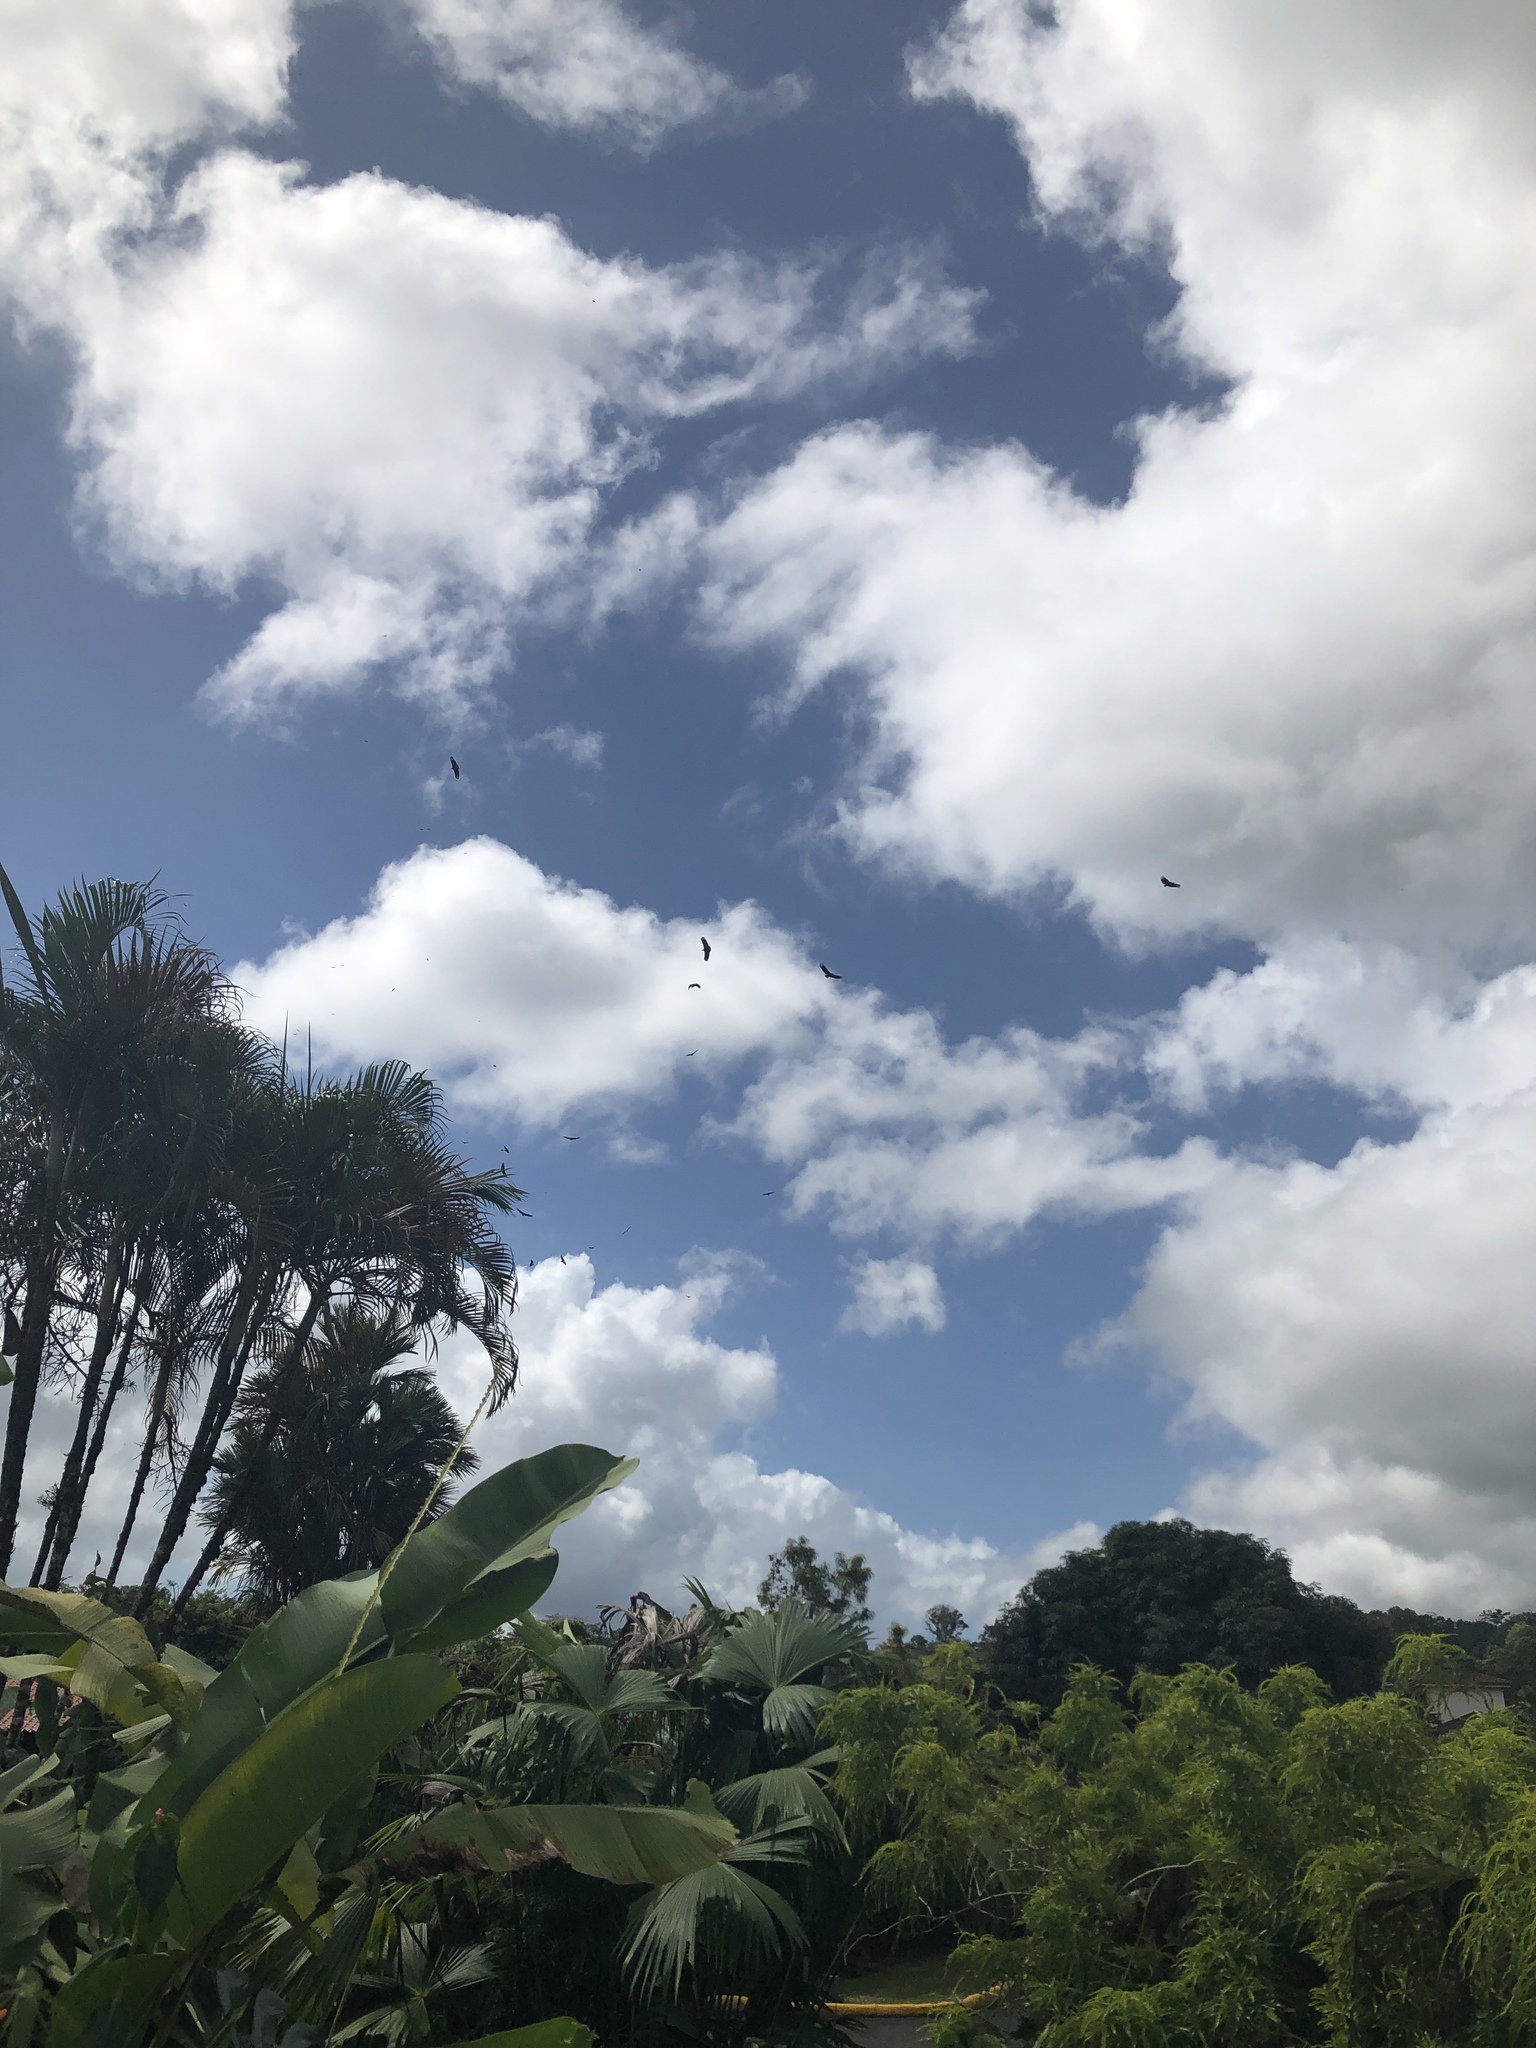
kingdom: Animalia
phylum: Chordata
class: Aves
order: Accipitriformes
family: Cathartidae
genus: Coragyps
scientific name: Coragyps atratus
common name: Black vulture
